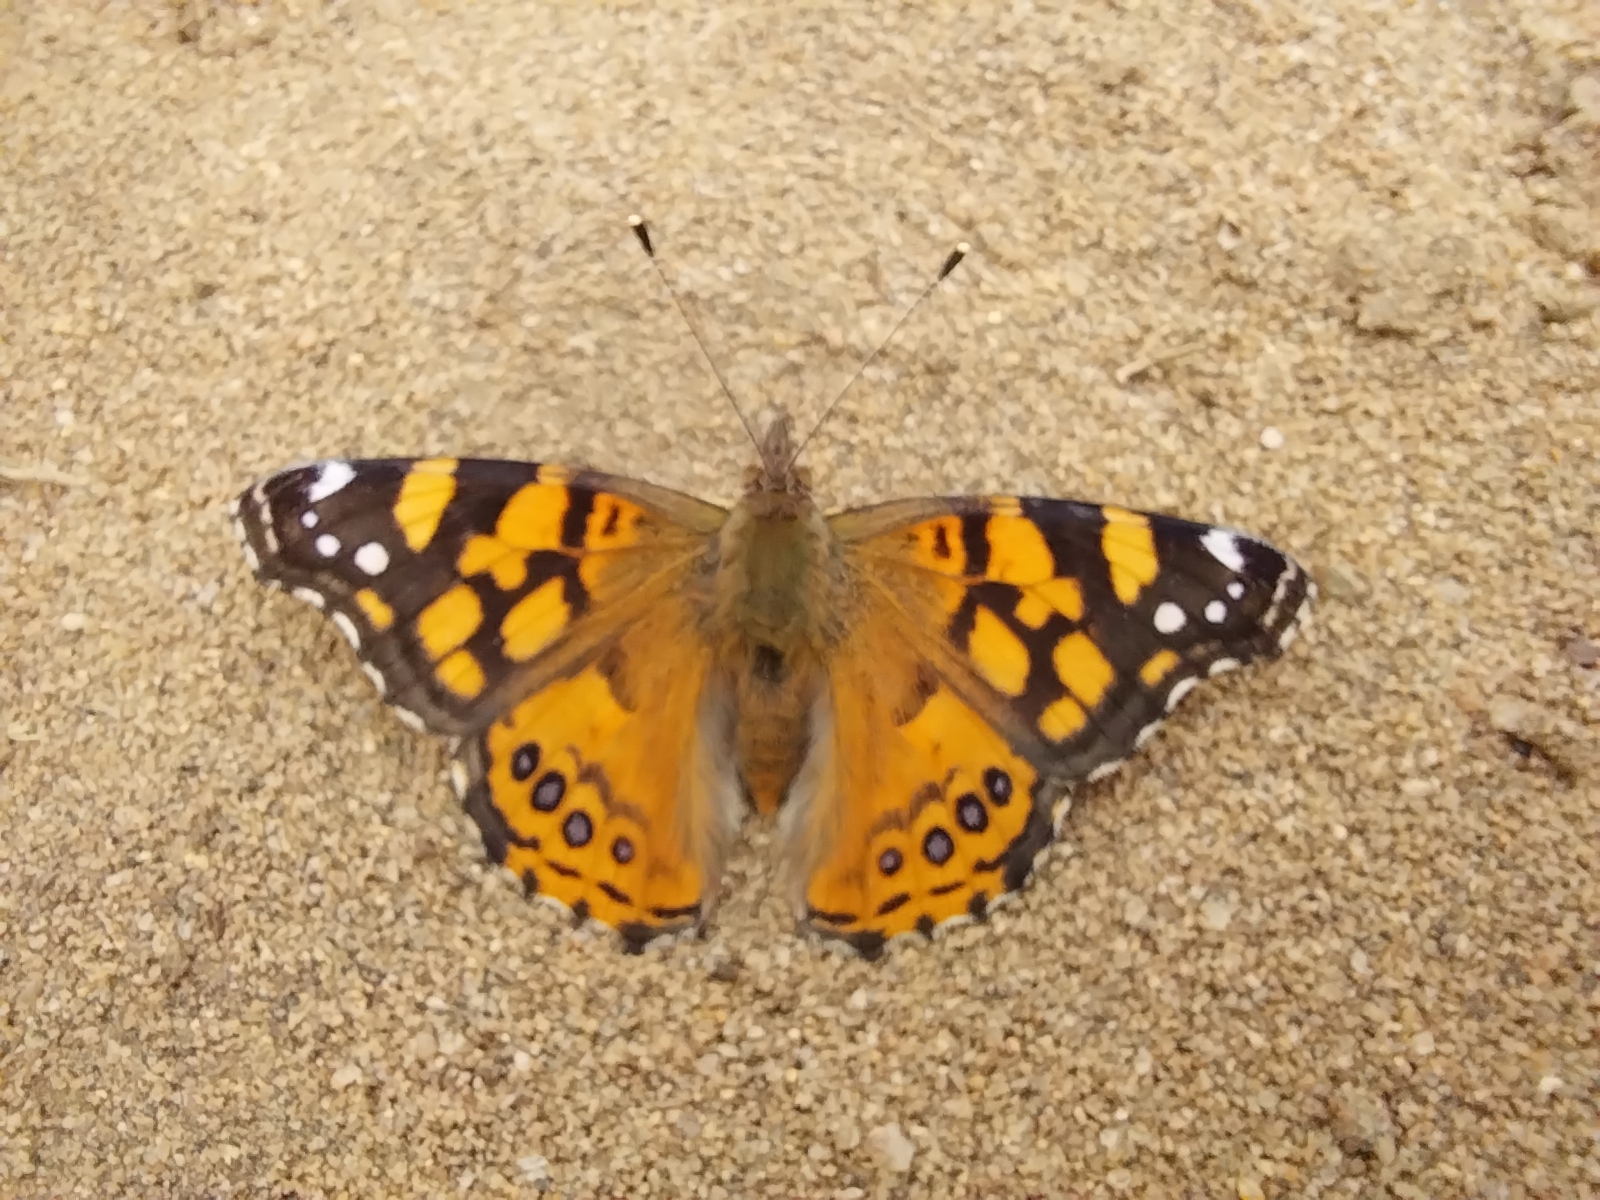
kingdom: Animalia
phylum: Arthropoda
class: Insecta
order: Lepidoptera
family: Nymphalidae
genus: Vanessa
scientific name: Vanessa annabella
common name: West coast lady
